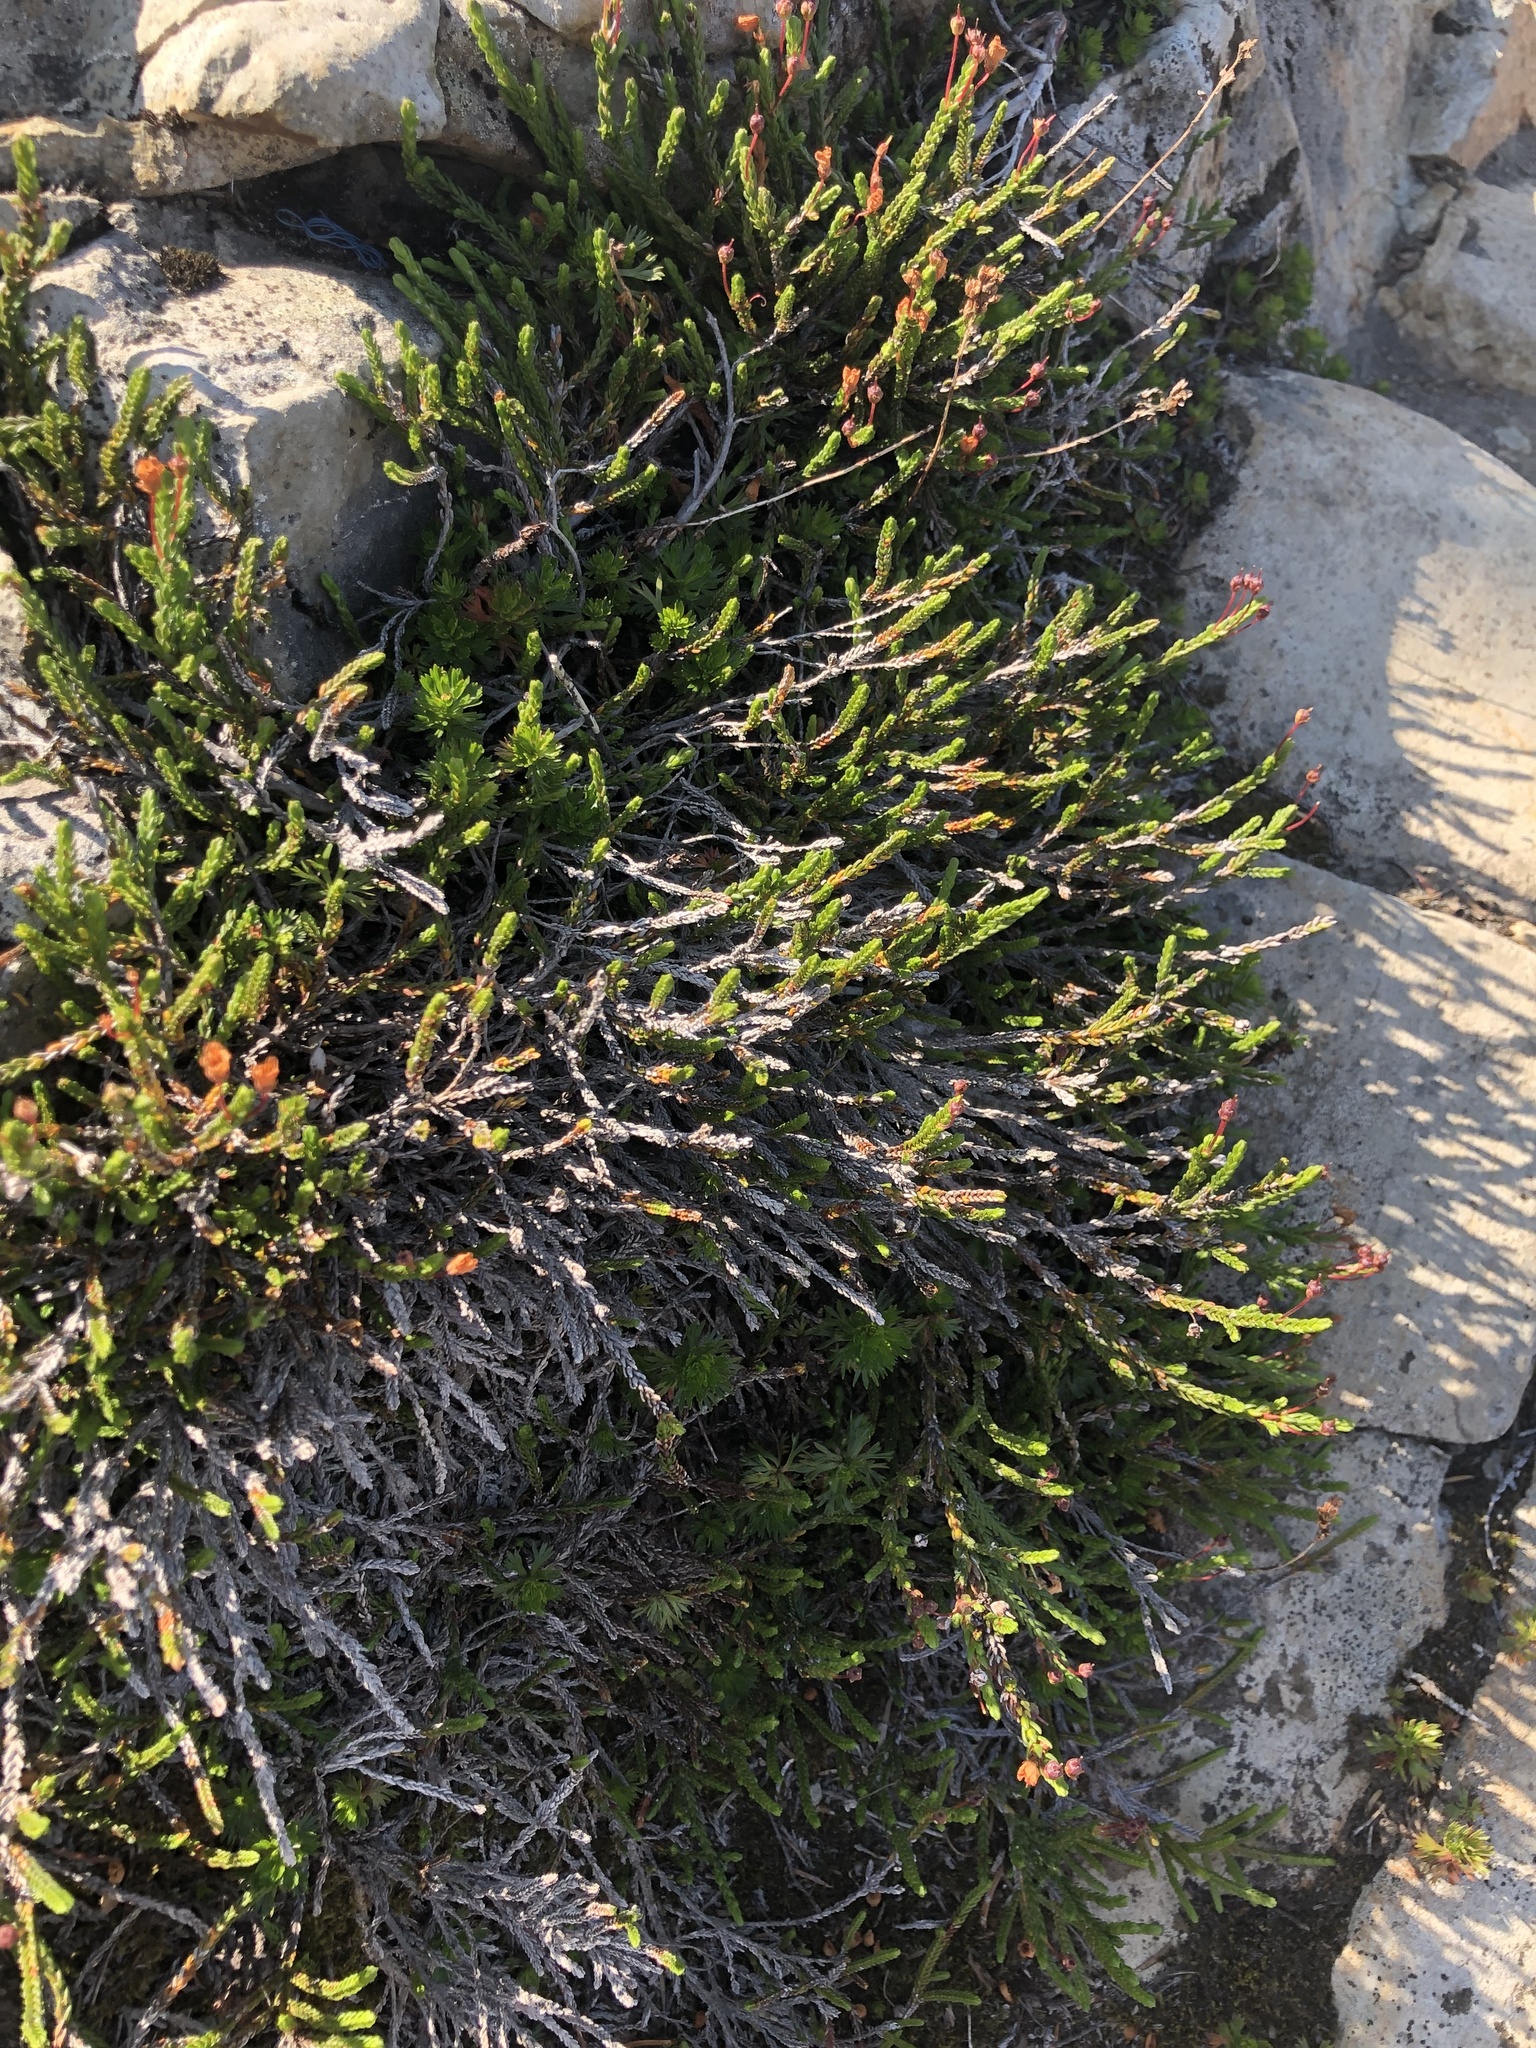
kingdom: Plantae
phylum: Tracheophyta
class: Magnoliopsida
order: Ericales
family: Ericaceae
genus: Cassiope
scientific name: Cassiope mertensiana
